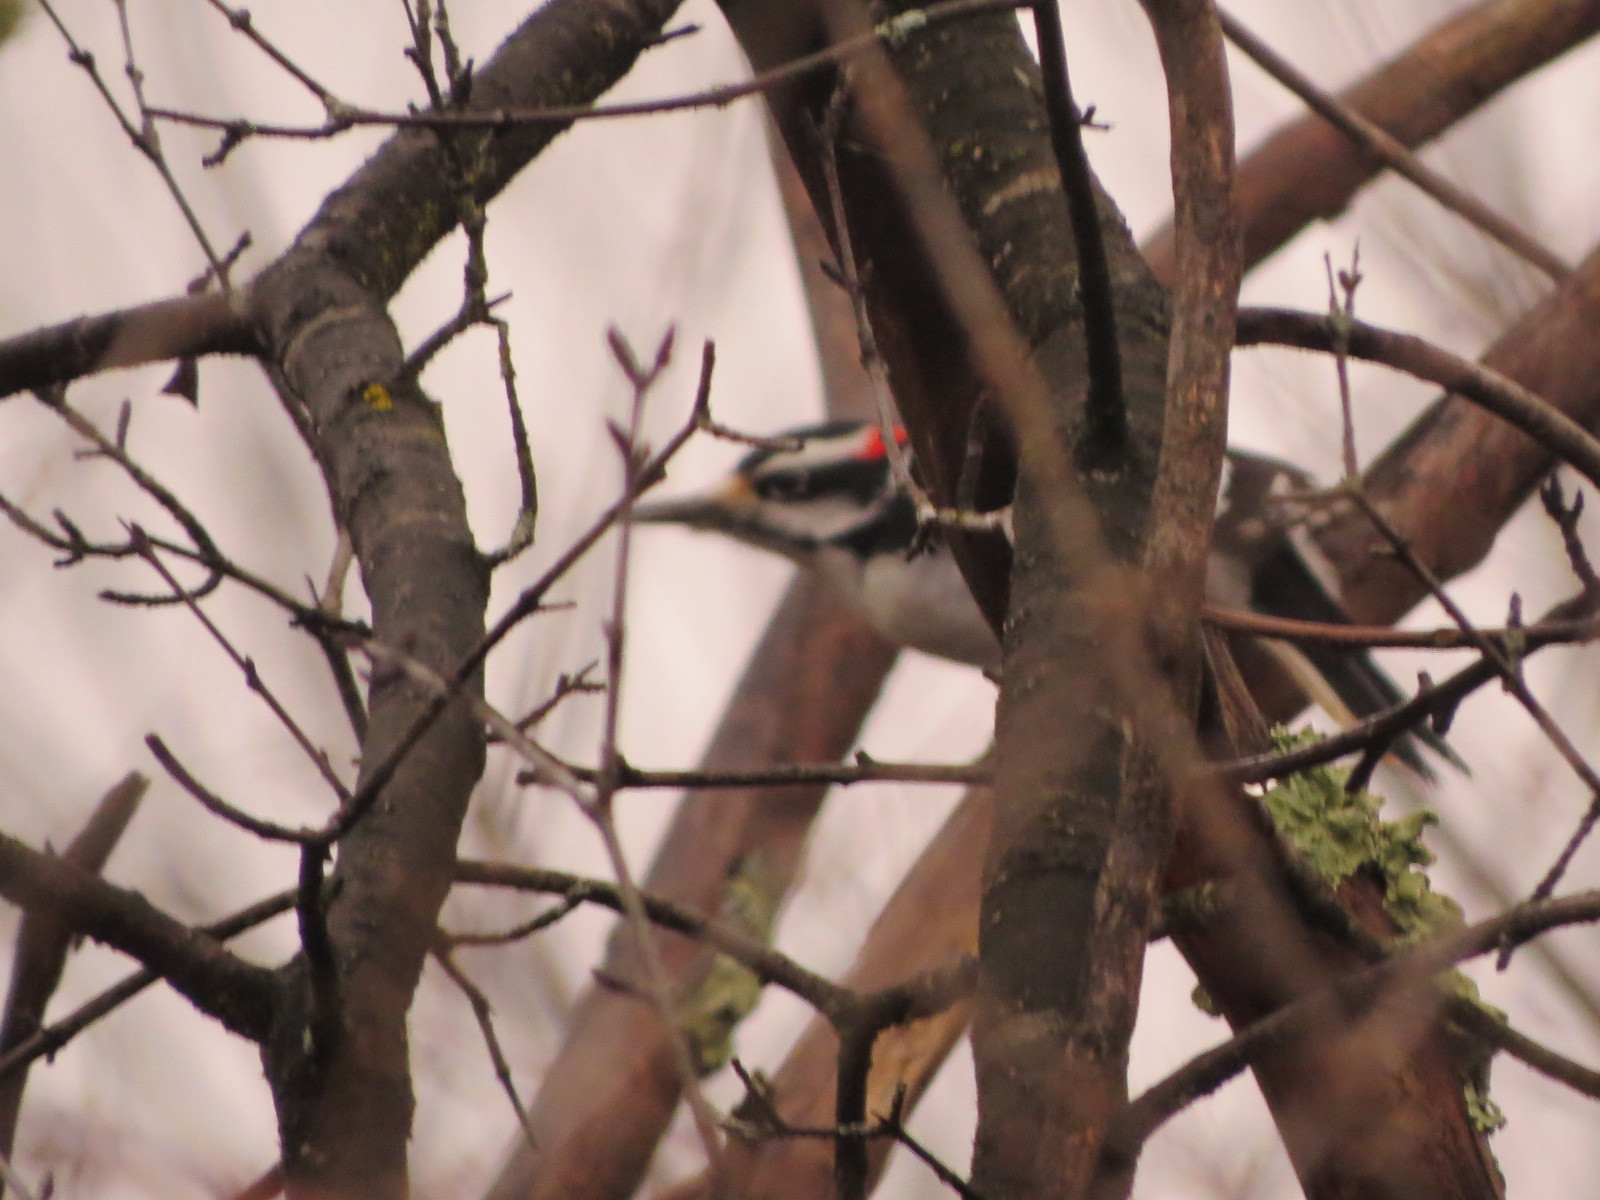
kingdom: Animalia
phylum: Chordata
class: Aves
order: Piciformes
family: Picidae
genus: Leuconotopicus
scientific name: Leuconotopicus villosus
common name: Hairy woodpecker
